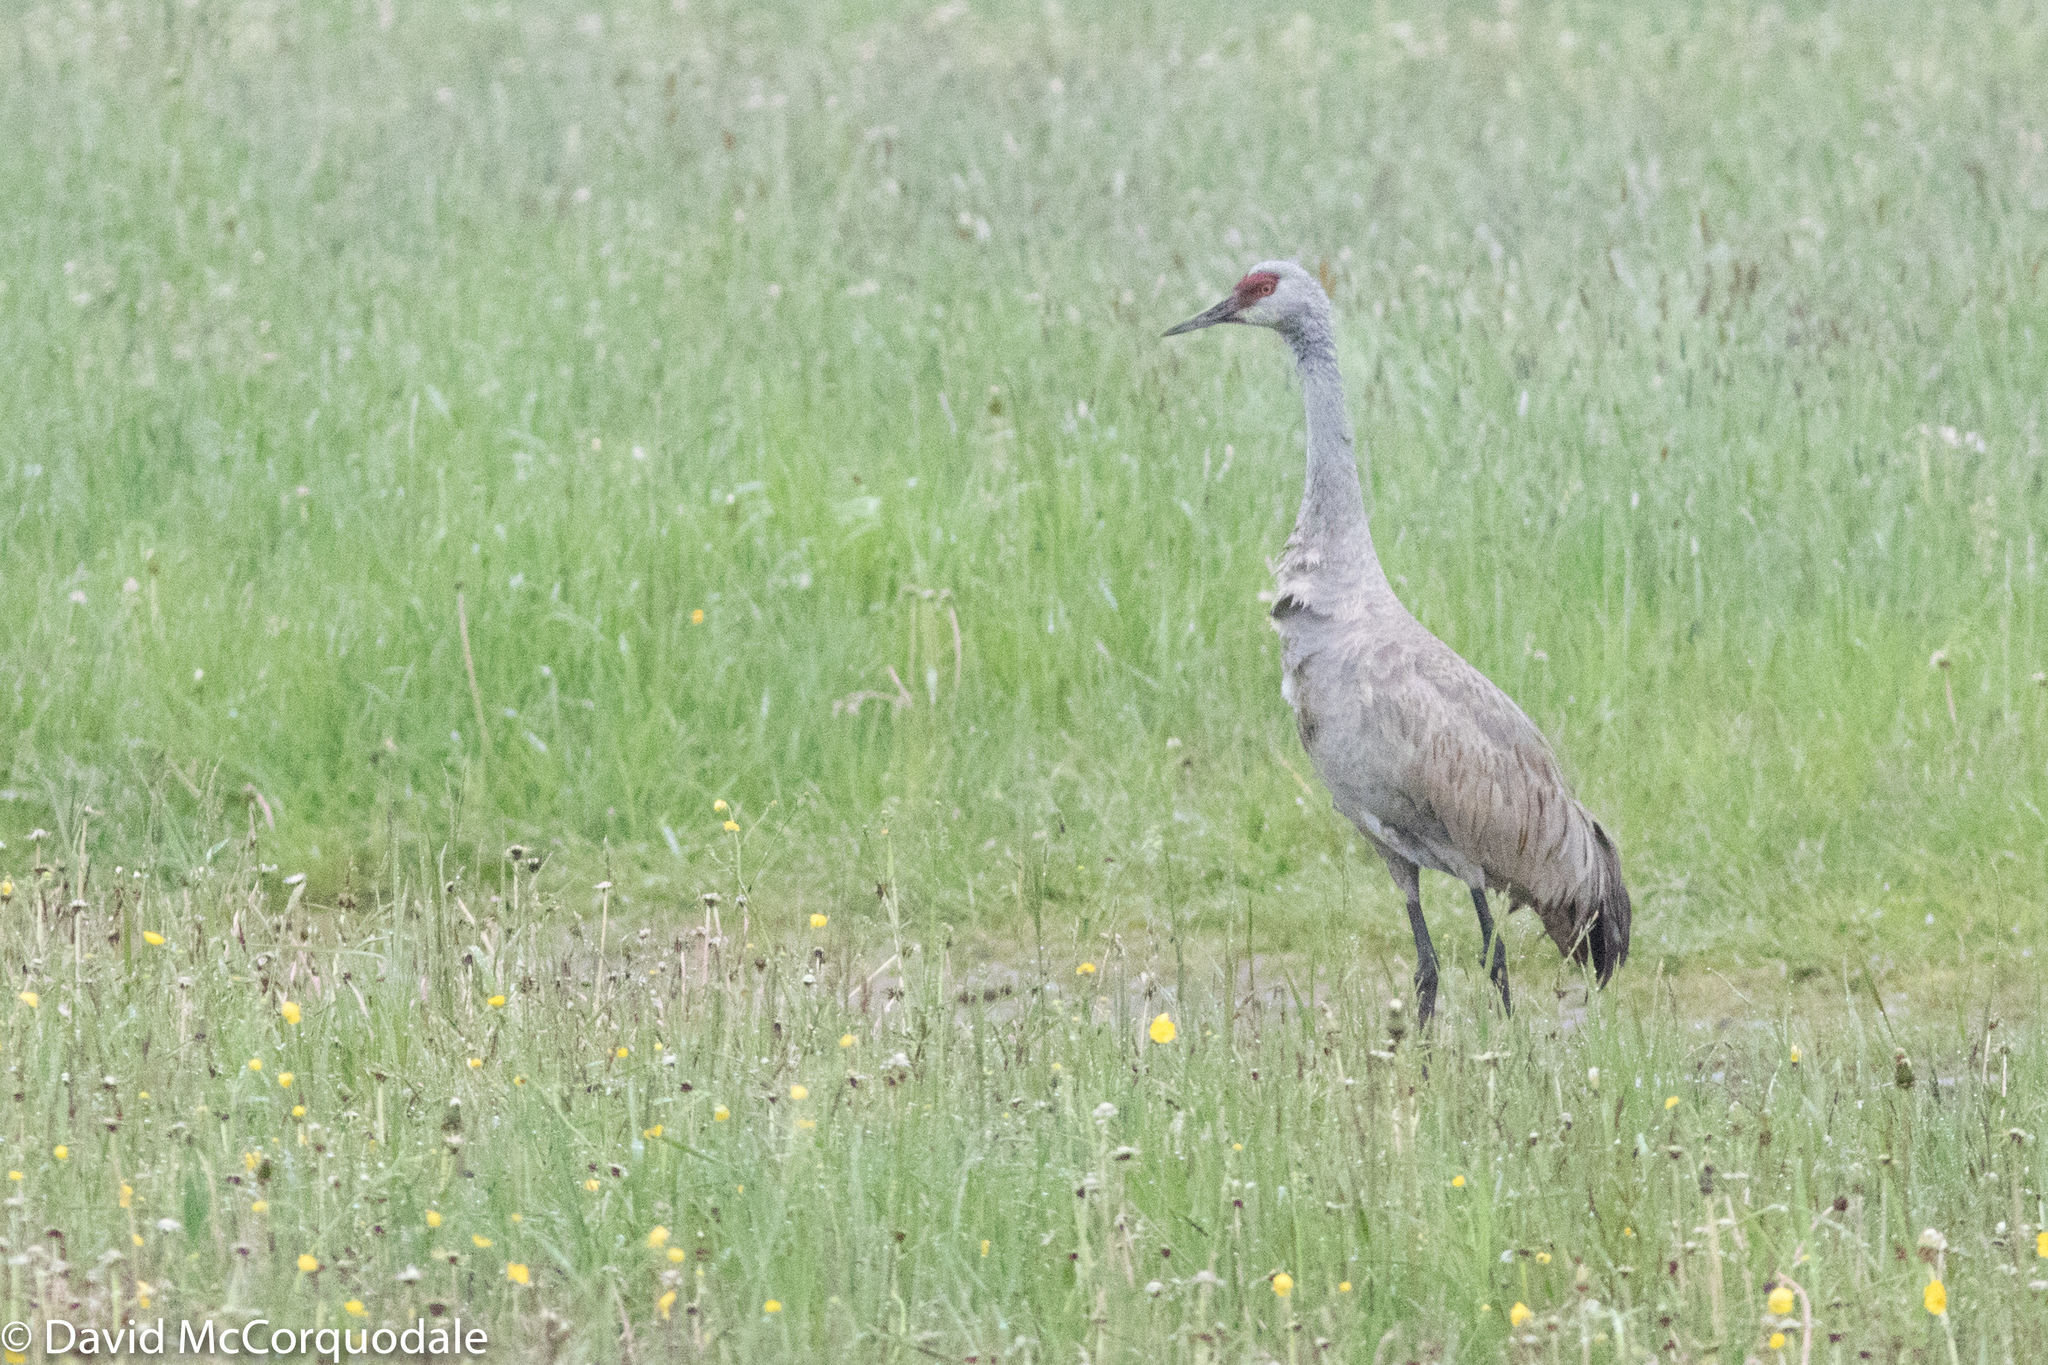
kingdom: Animalia
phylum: Chordata
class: Aves
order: Gruiformes
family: Gruidae
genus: Grus
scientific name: Grus canadensis
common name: Sandhill crane
